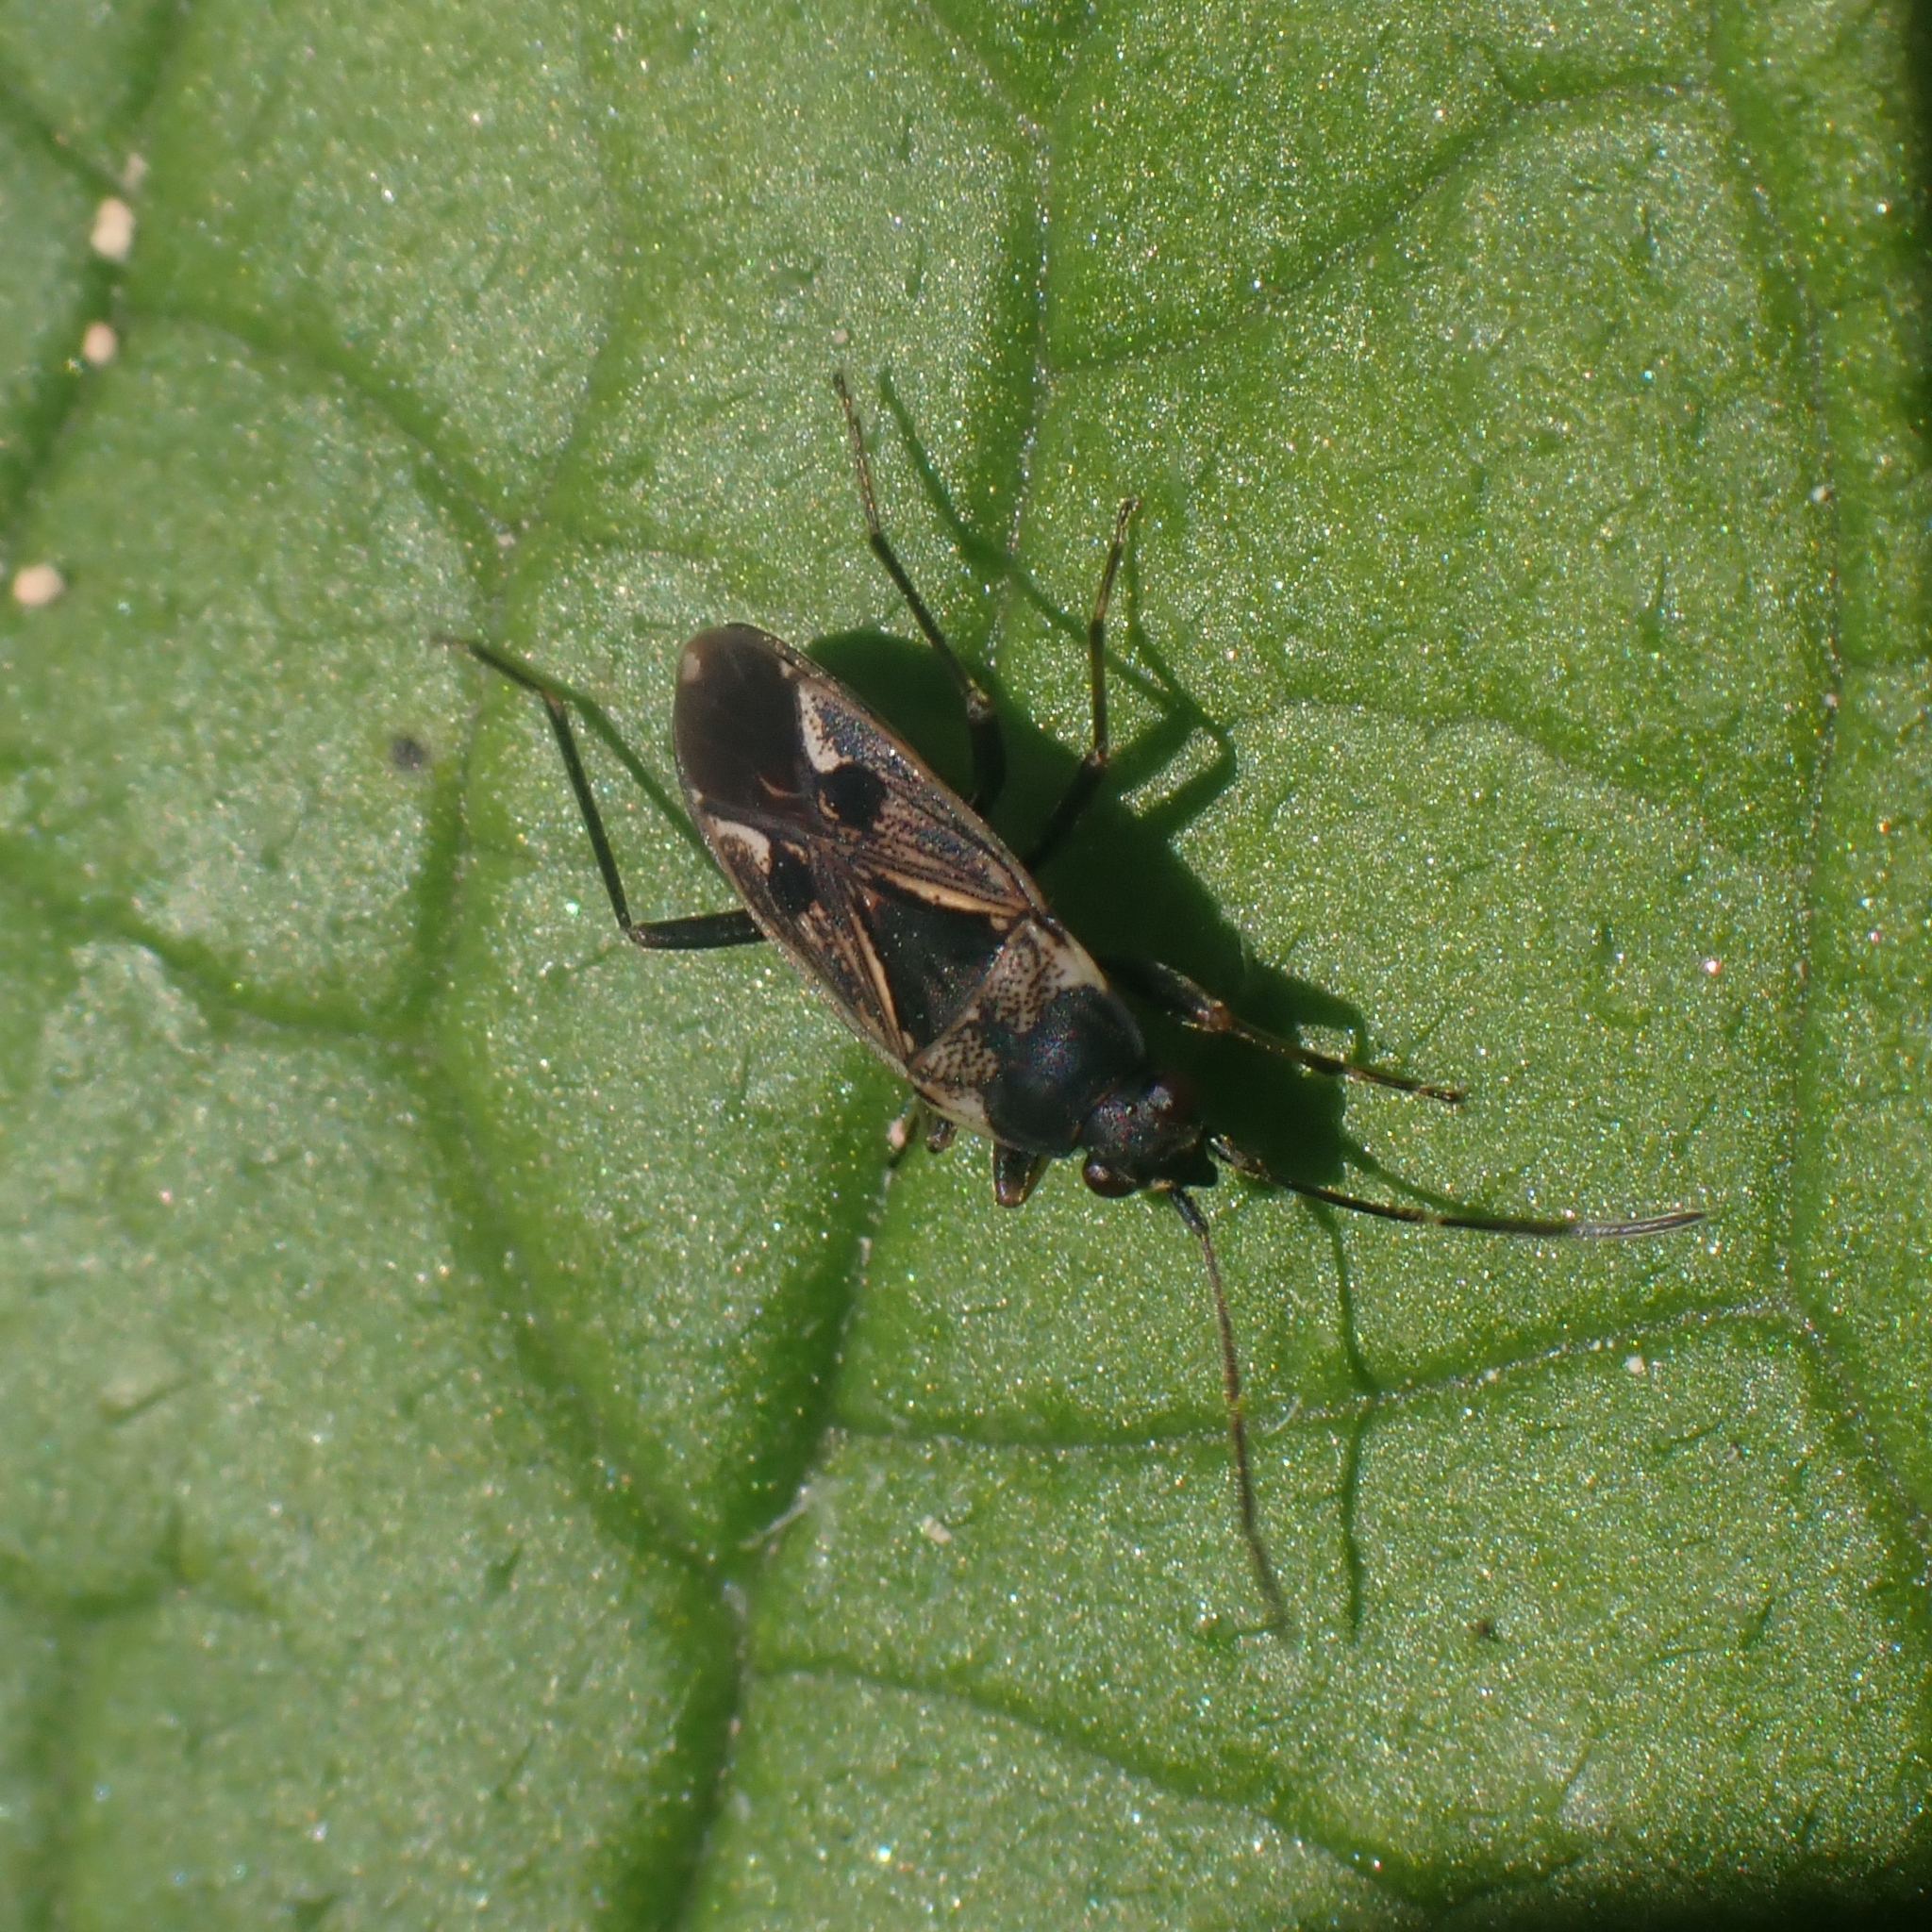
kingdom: Animalia
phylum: Arthropoda
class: Insecta
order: Hemiptera
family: Rhyparochromidae
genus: Rhyparochromus
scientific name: Rhyparochromus vulgaris
